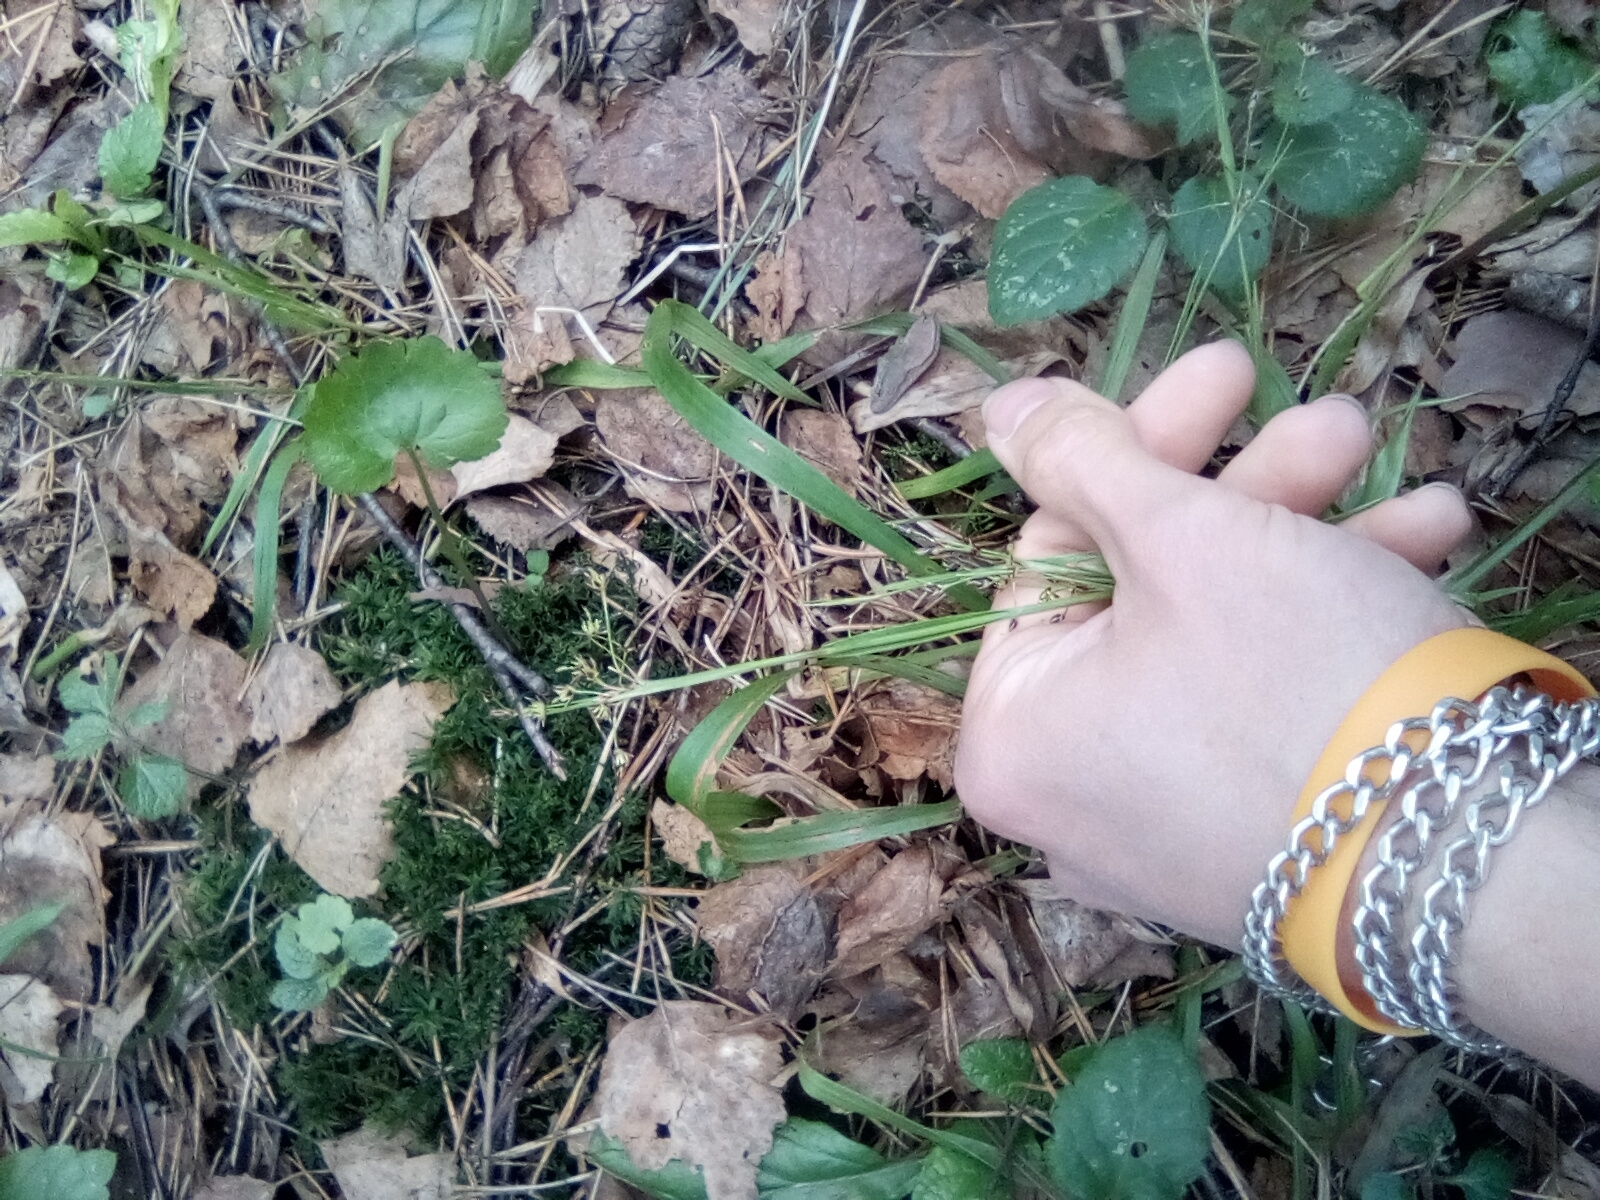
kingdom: Plantae
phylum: Tracheophyta
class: Liliopsida
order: Poales
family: Juncaceae
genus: Luzula
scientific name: Luzula pilosa
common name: Hairy wood-rush
